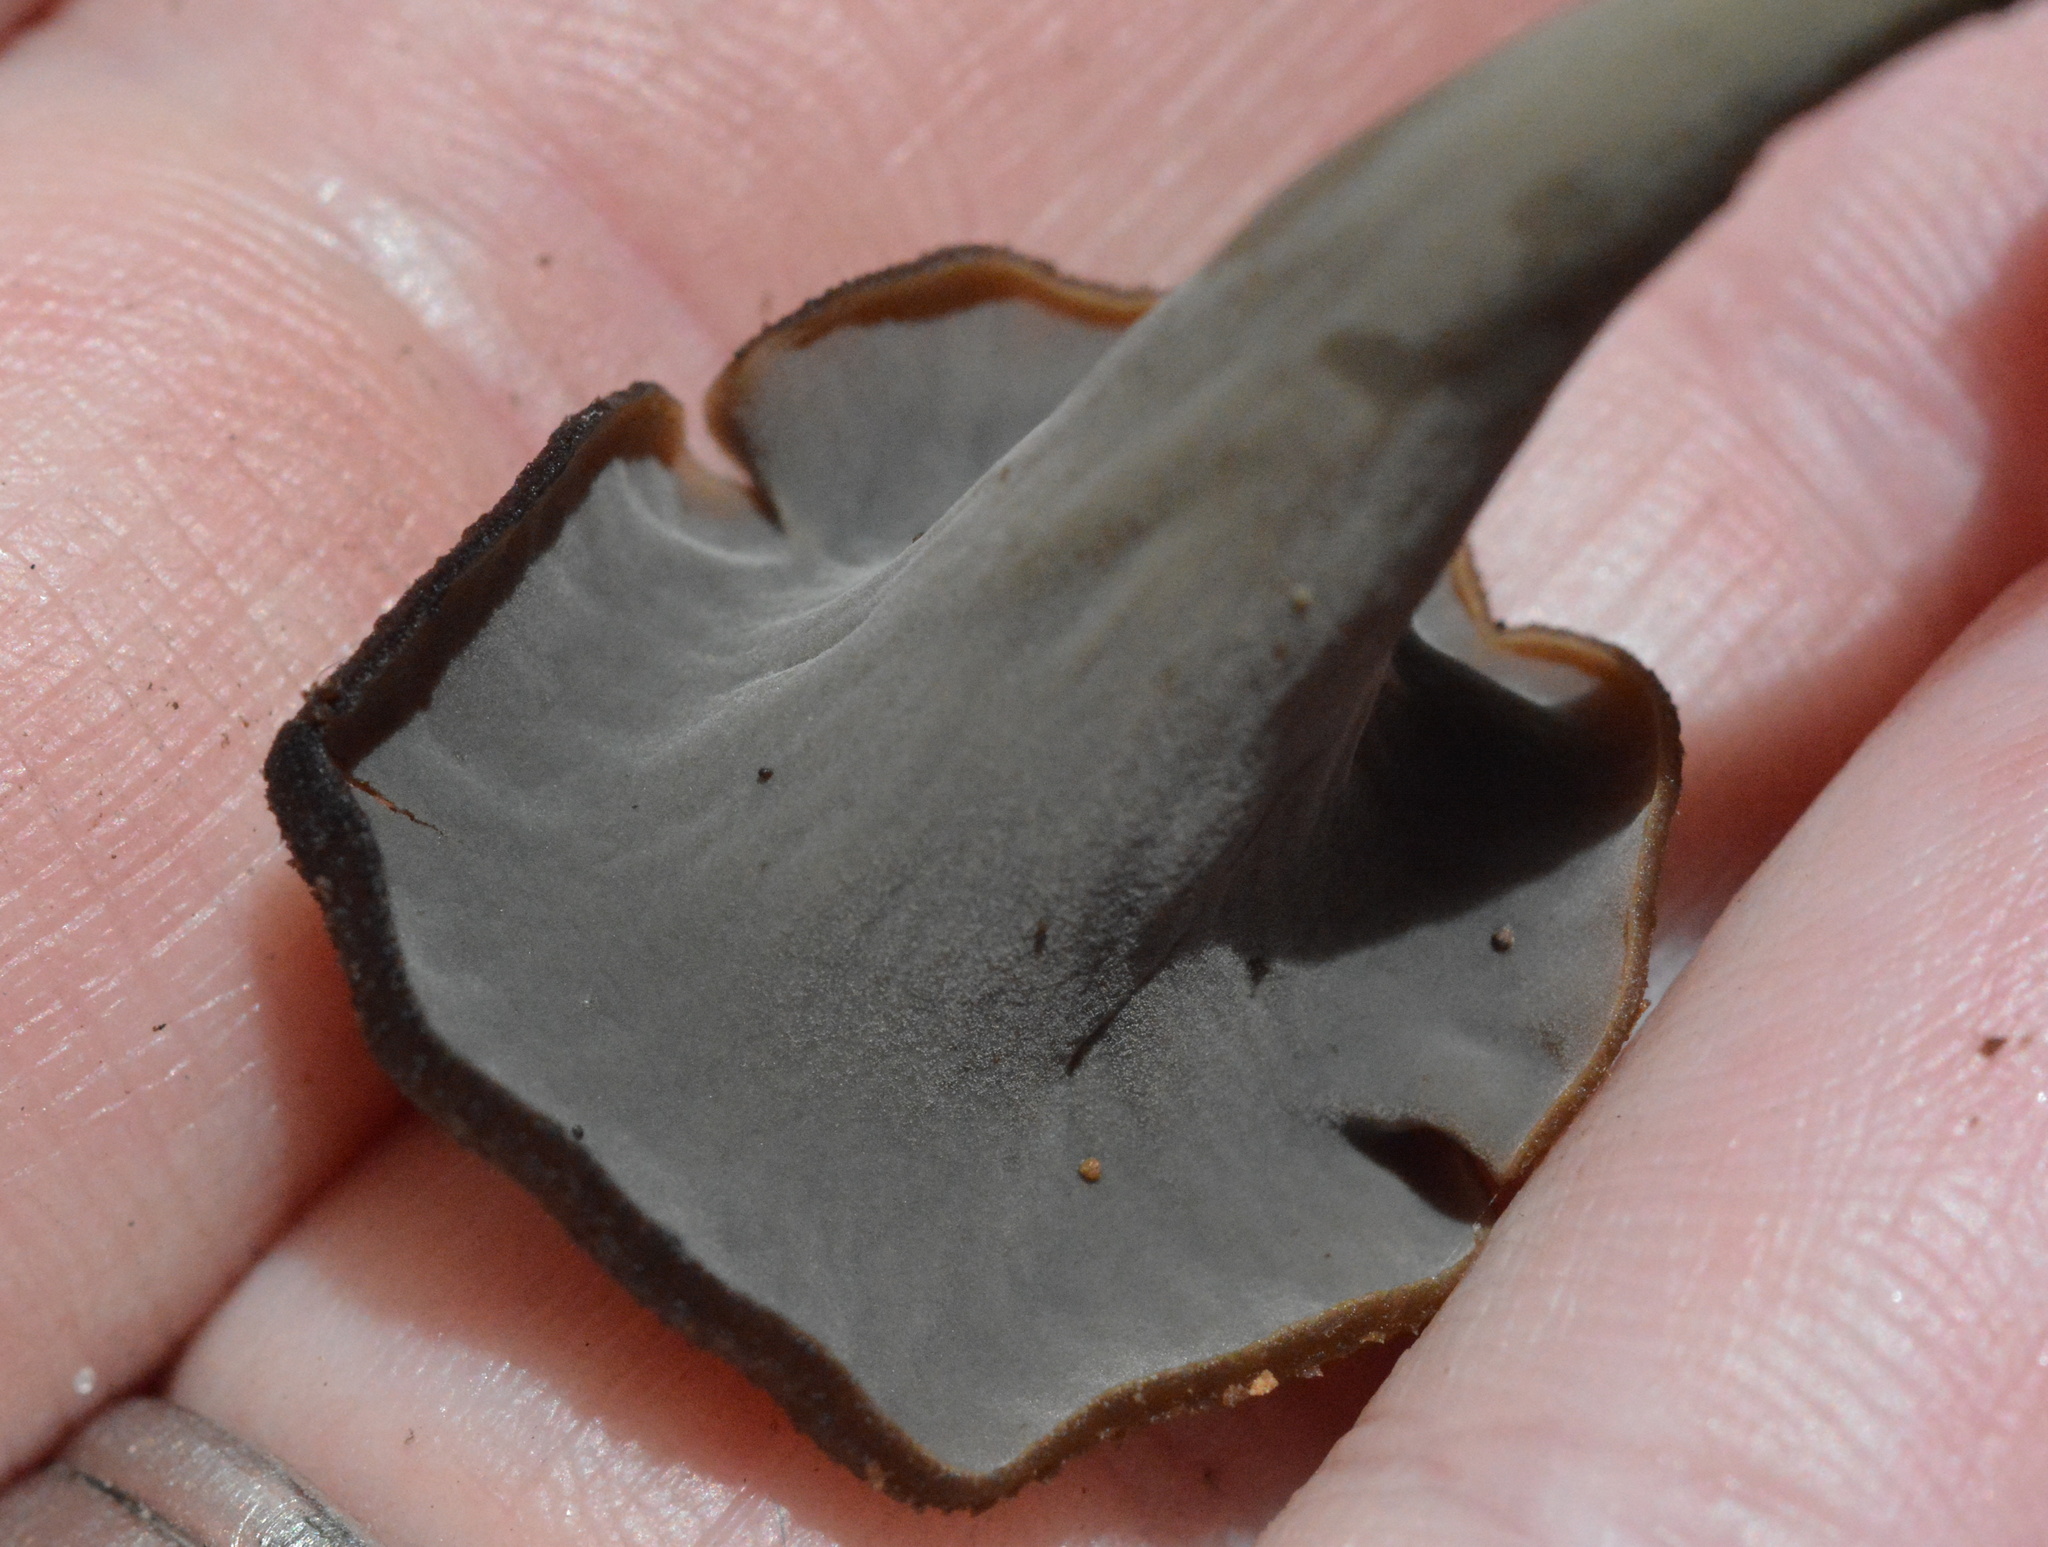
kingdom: Fungi
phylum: Basidiomycota
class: Agaricomycetes
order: Cantharellales
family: Hydnaceae
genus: Craterellus
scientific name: Craterellus cornucopioides
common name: Horn of plenty
